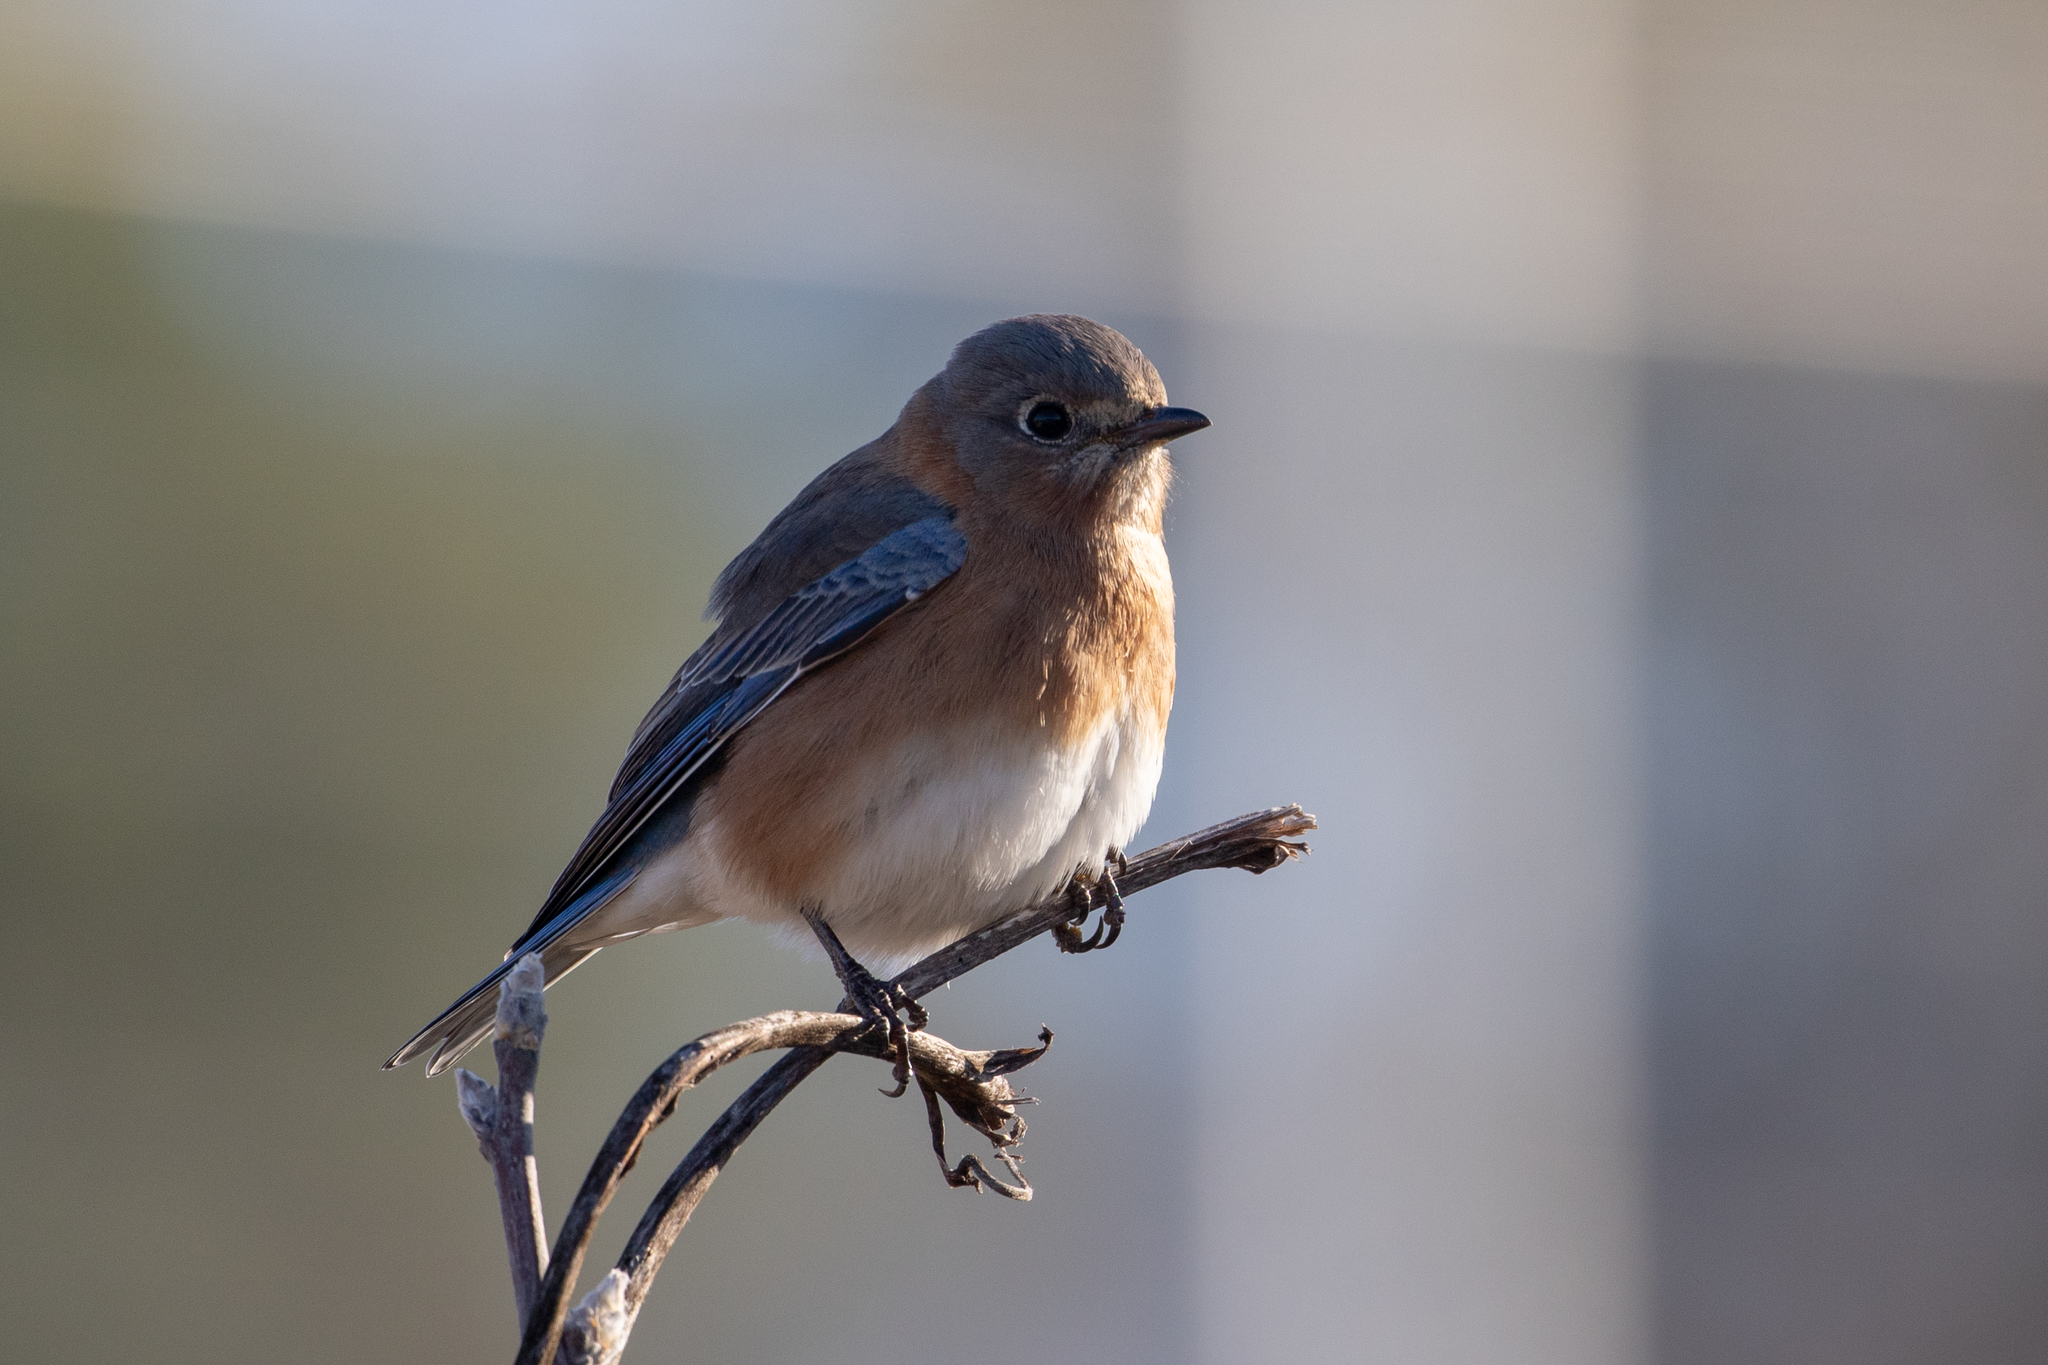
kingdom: Animalia
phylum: Chordata
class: Aves
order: Passeriformes
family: Turdidae
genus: Sialia
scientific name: Sialia sialis
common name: Eastern bluebird
